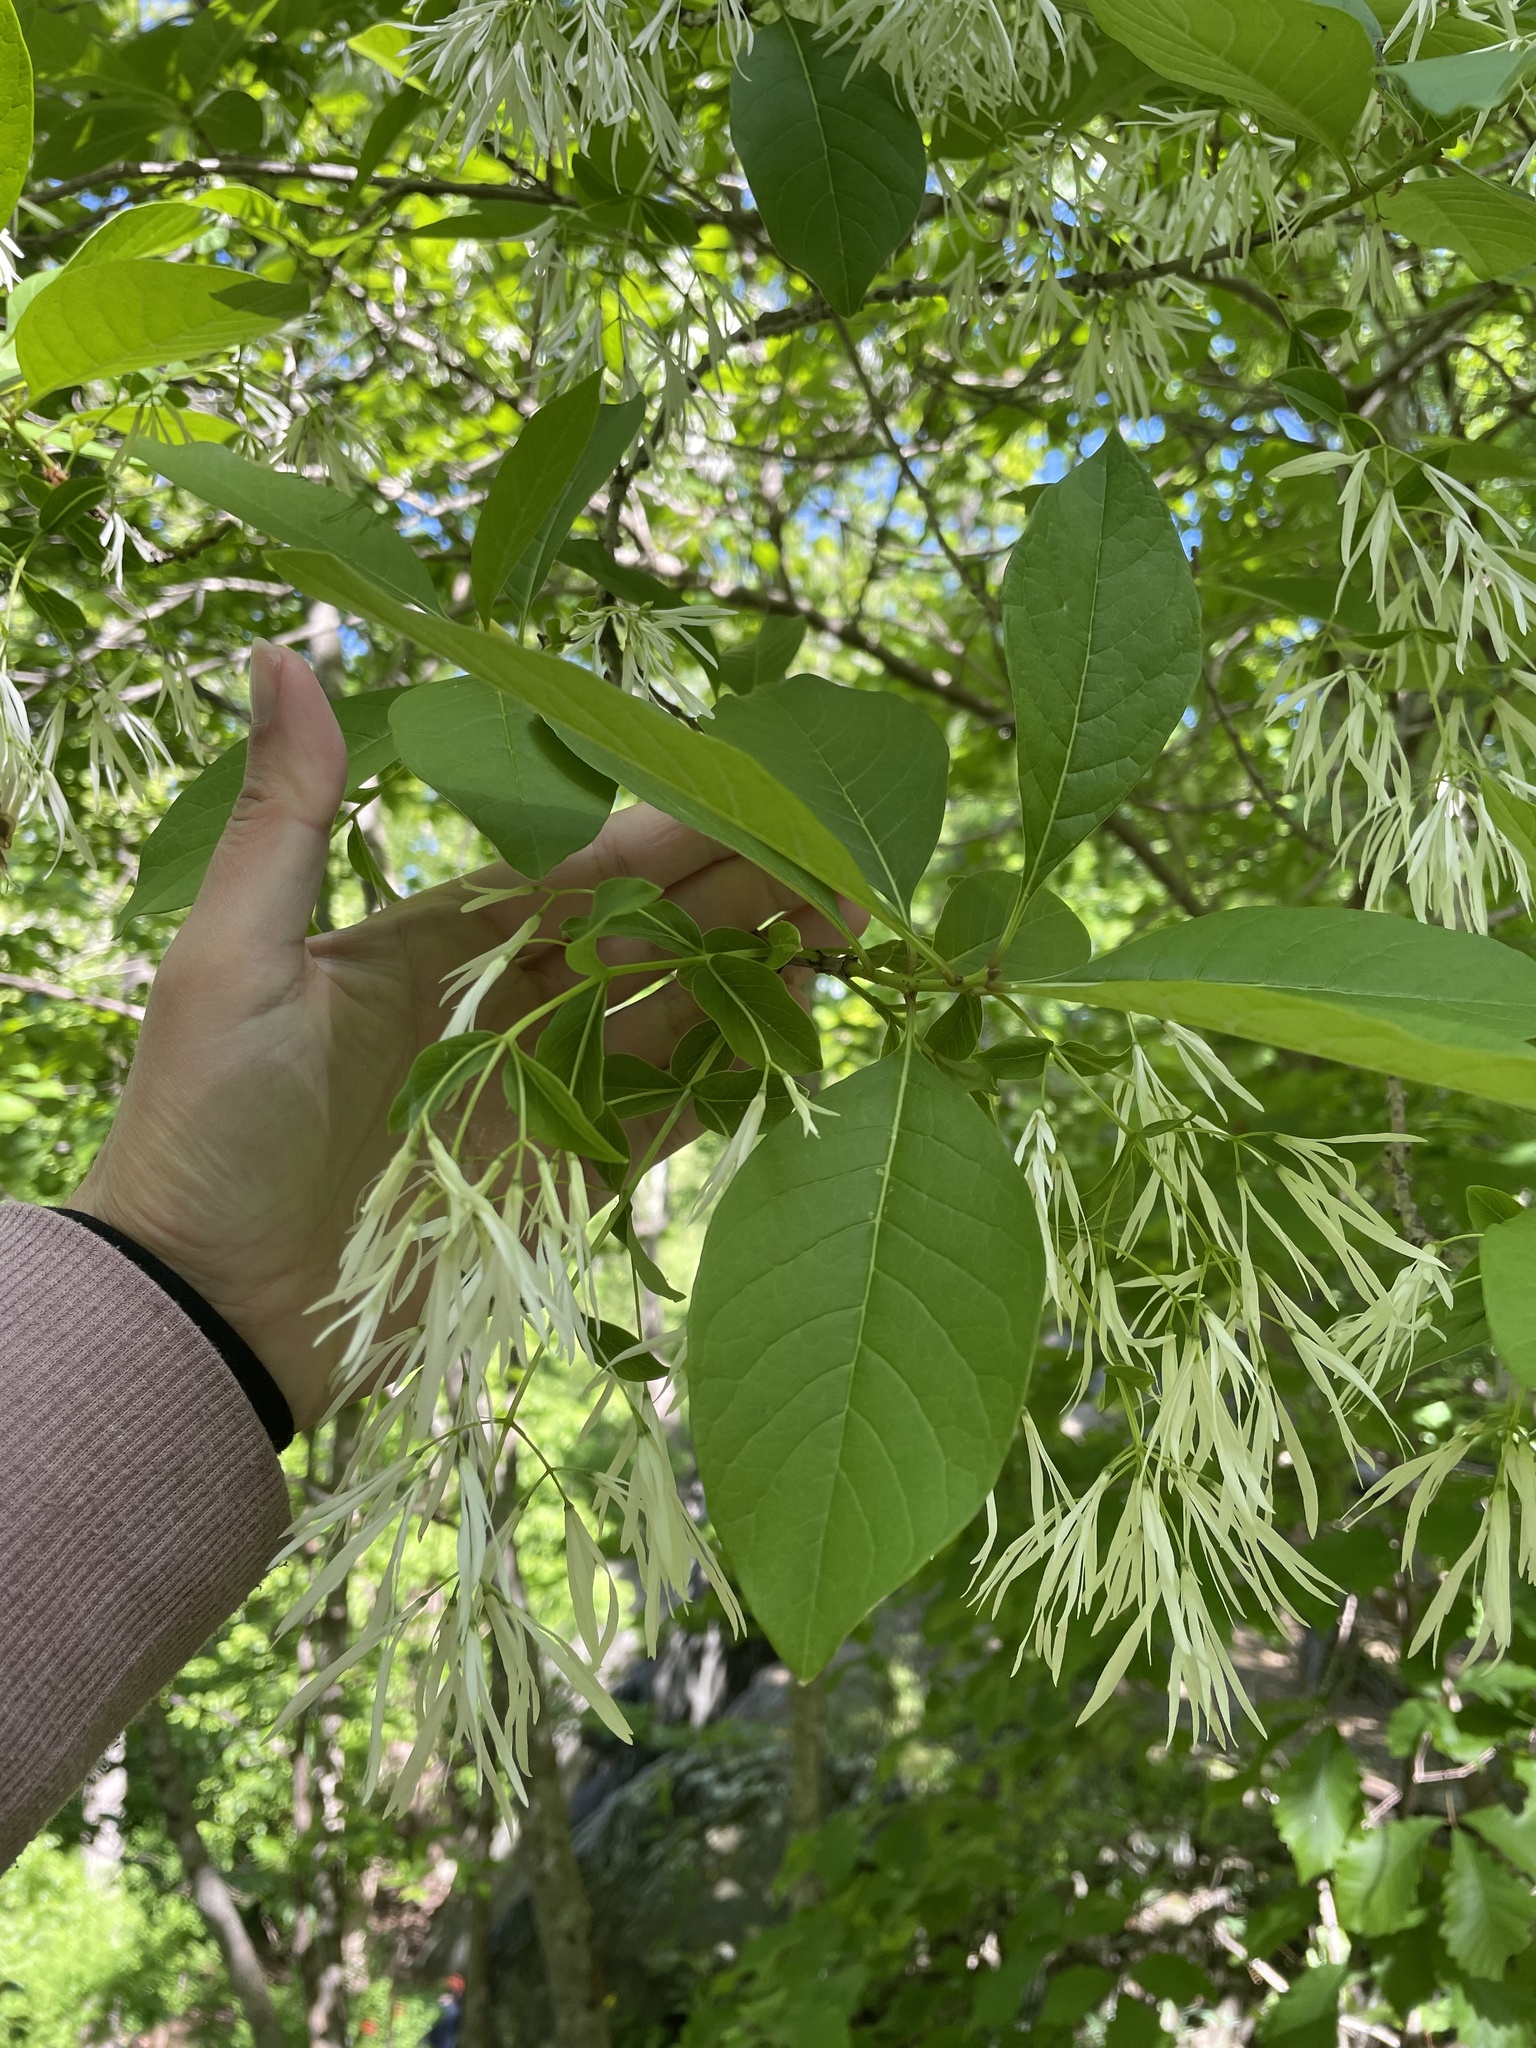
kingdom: Plantae
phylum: Tracheophyta
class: Magnoliopsida
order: Lamiales
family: Oleaceae
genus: Chionanthus
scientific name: Chionanthus virginicus
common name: American fringetree
